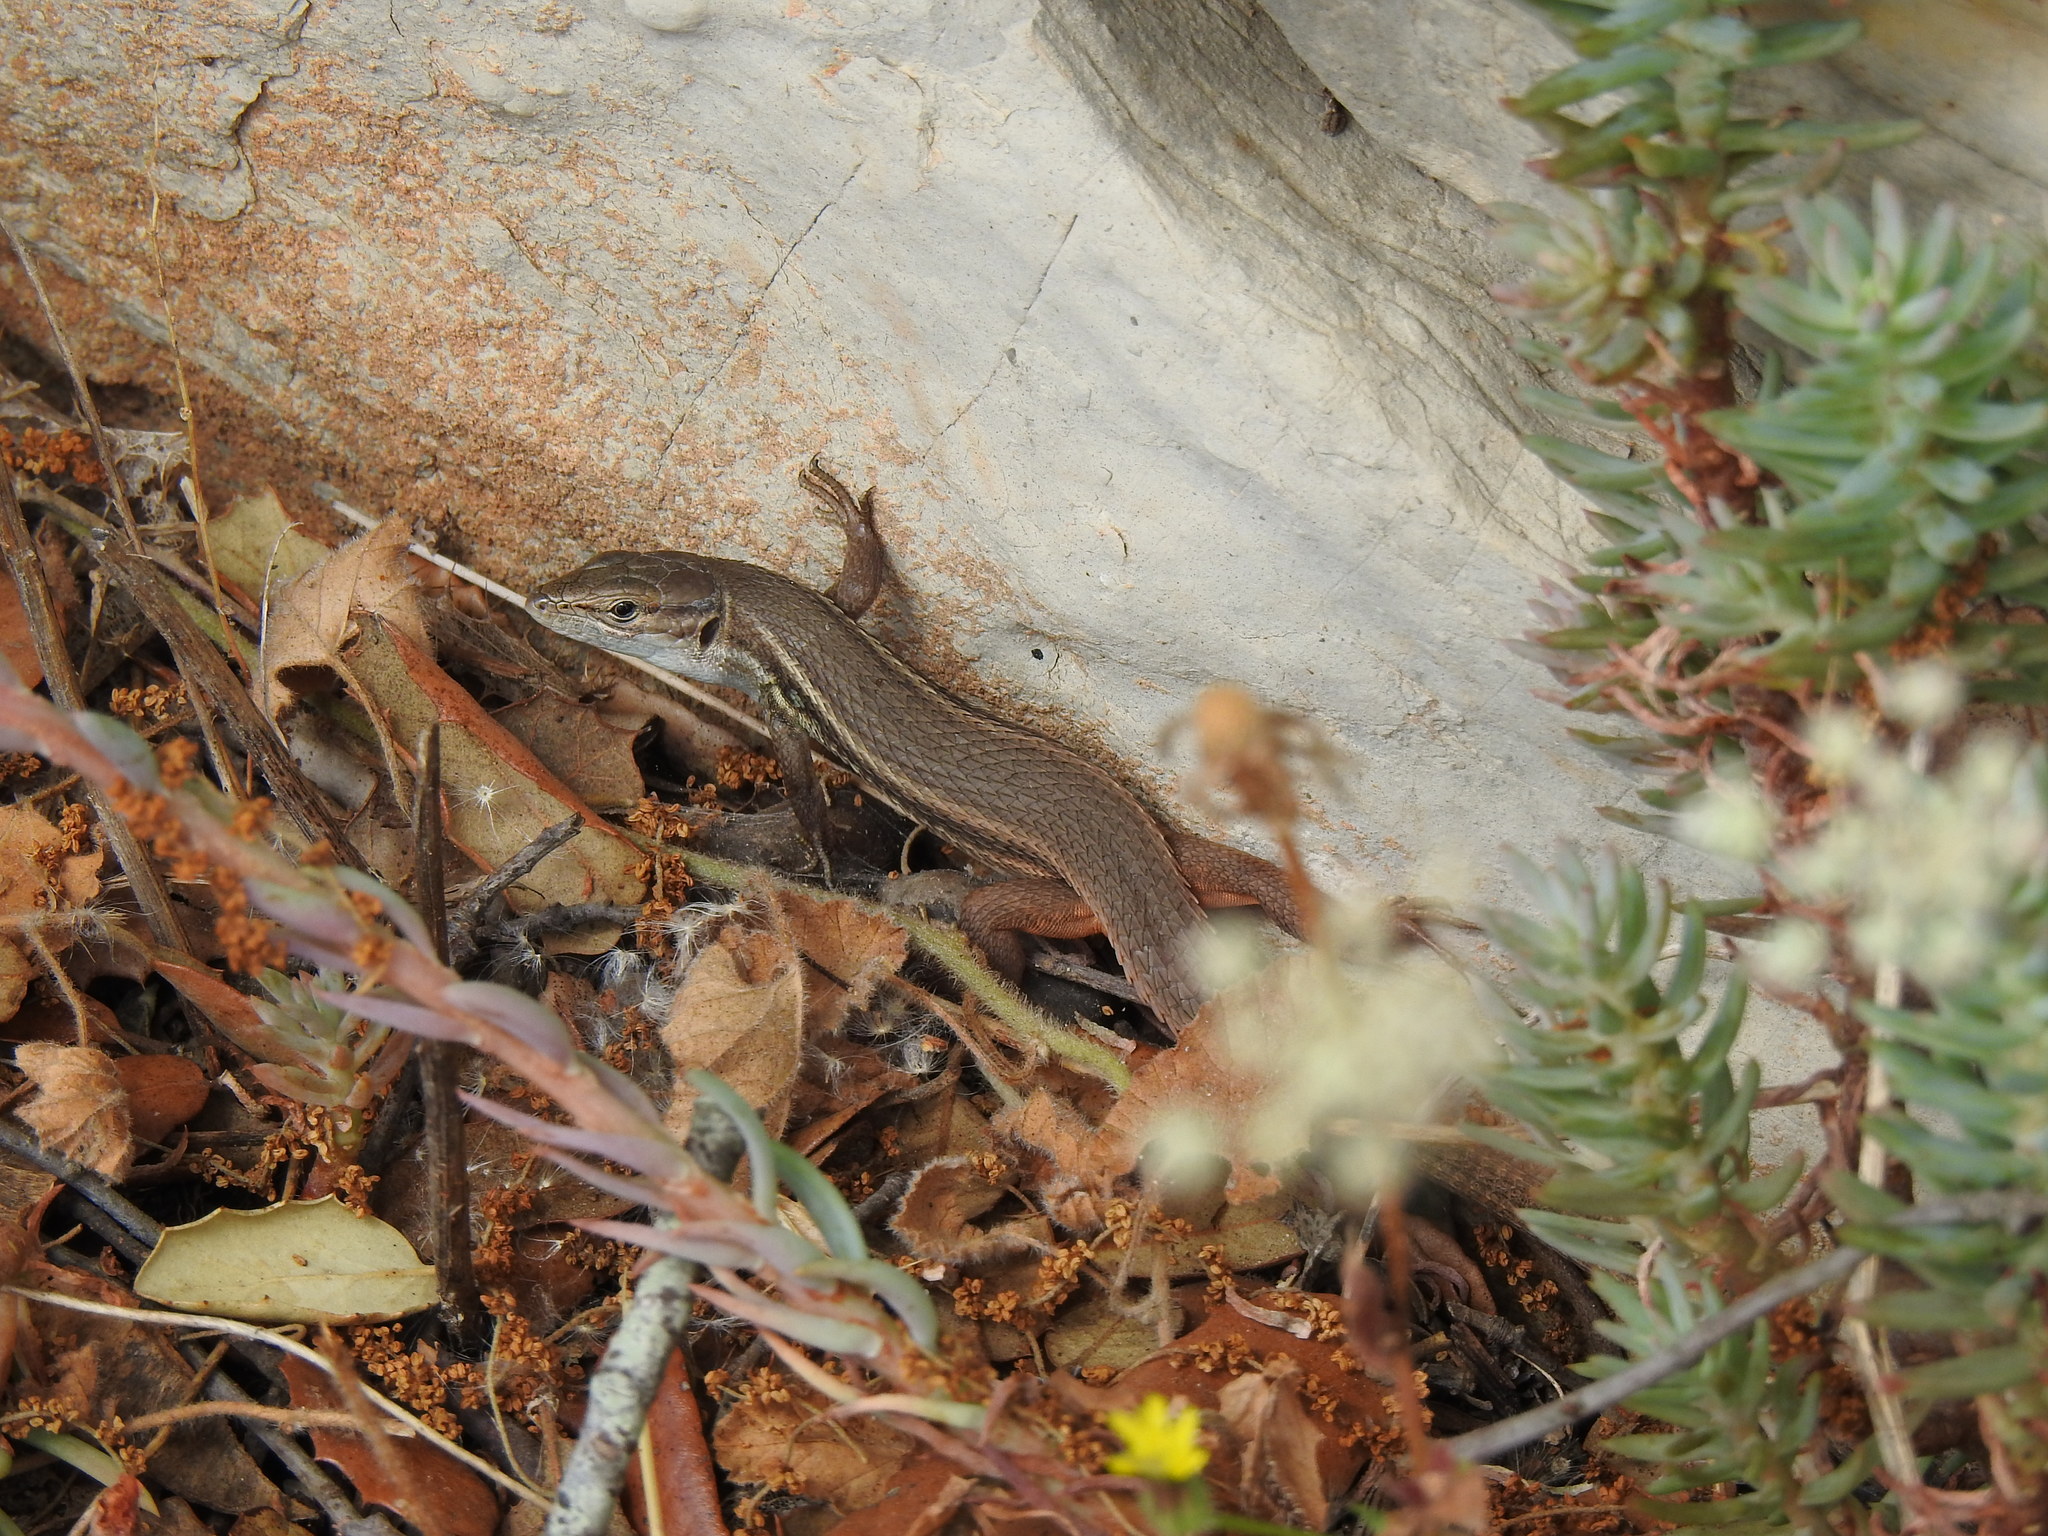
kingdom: Animalia
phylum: Chordata
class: Squamata
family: Lacertidae
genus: Psammodromus
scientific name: Psammodromus algirus
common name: Algerian psammodromus
